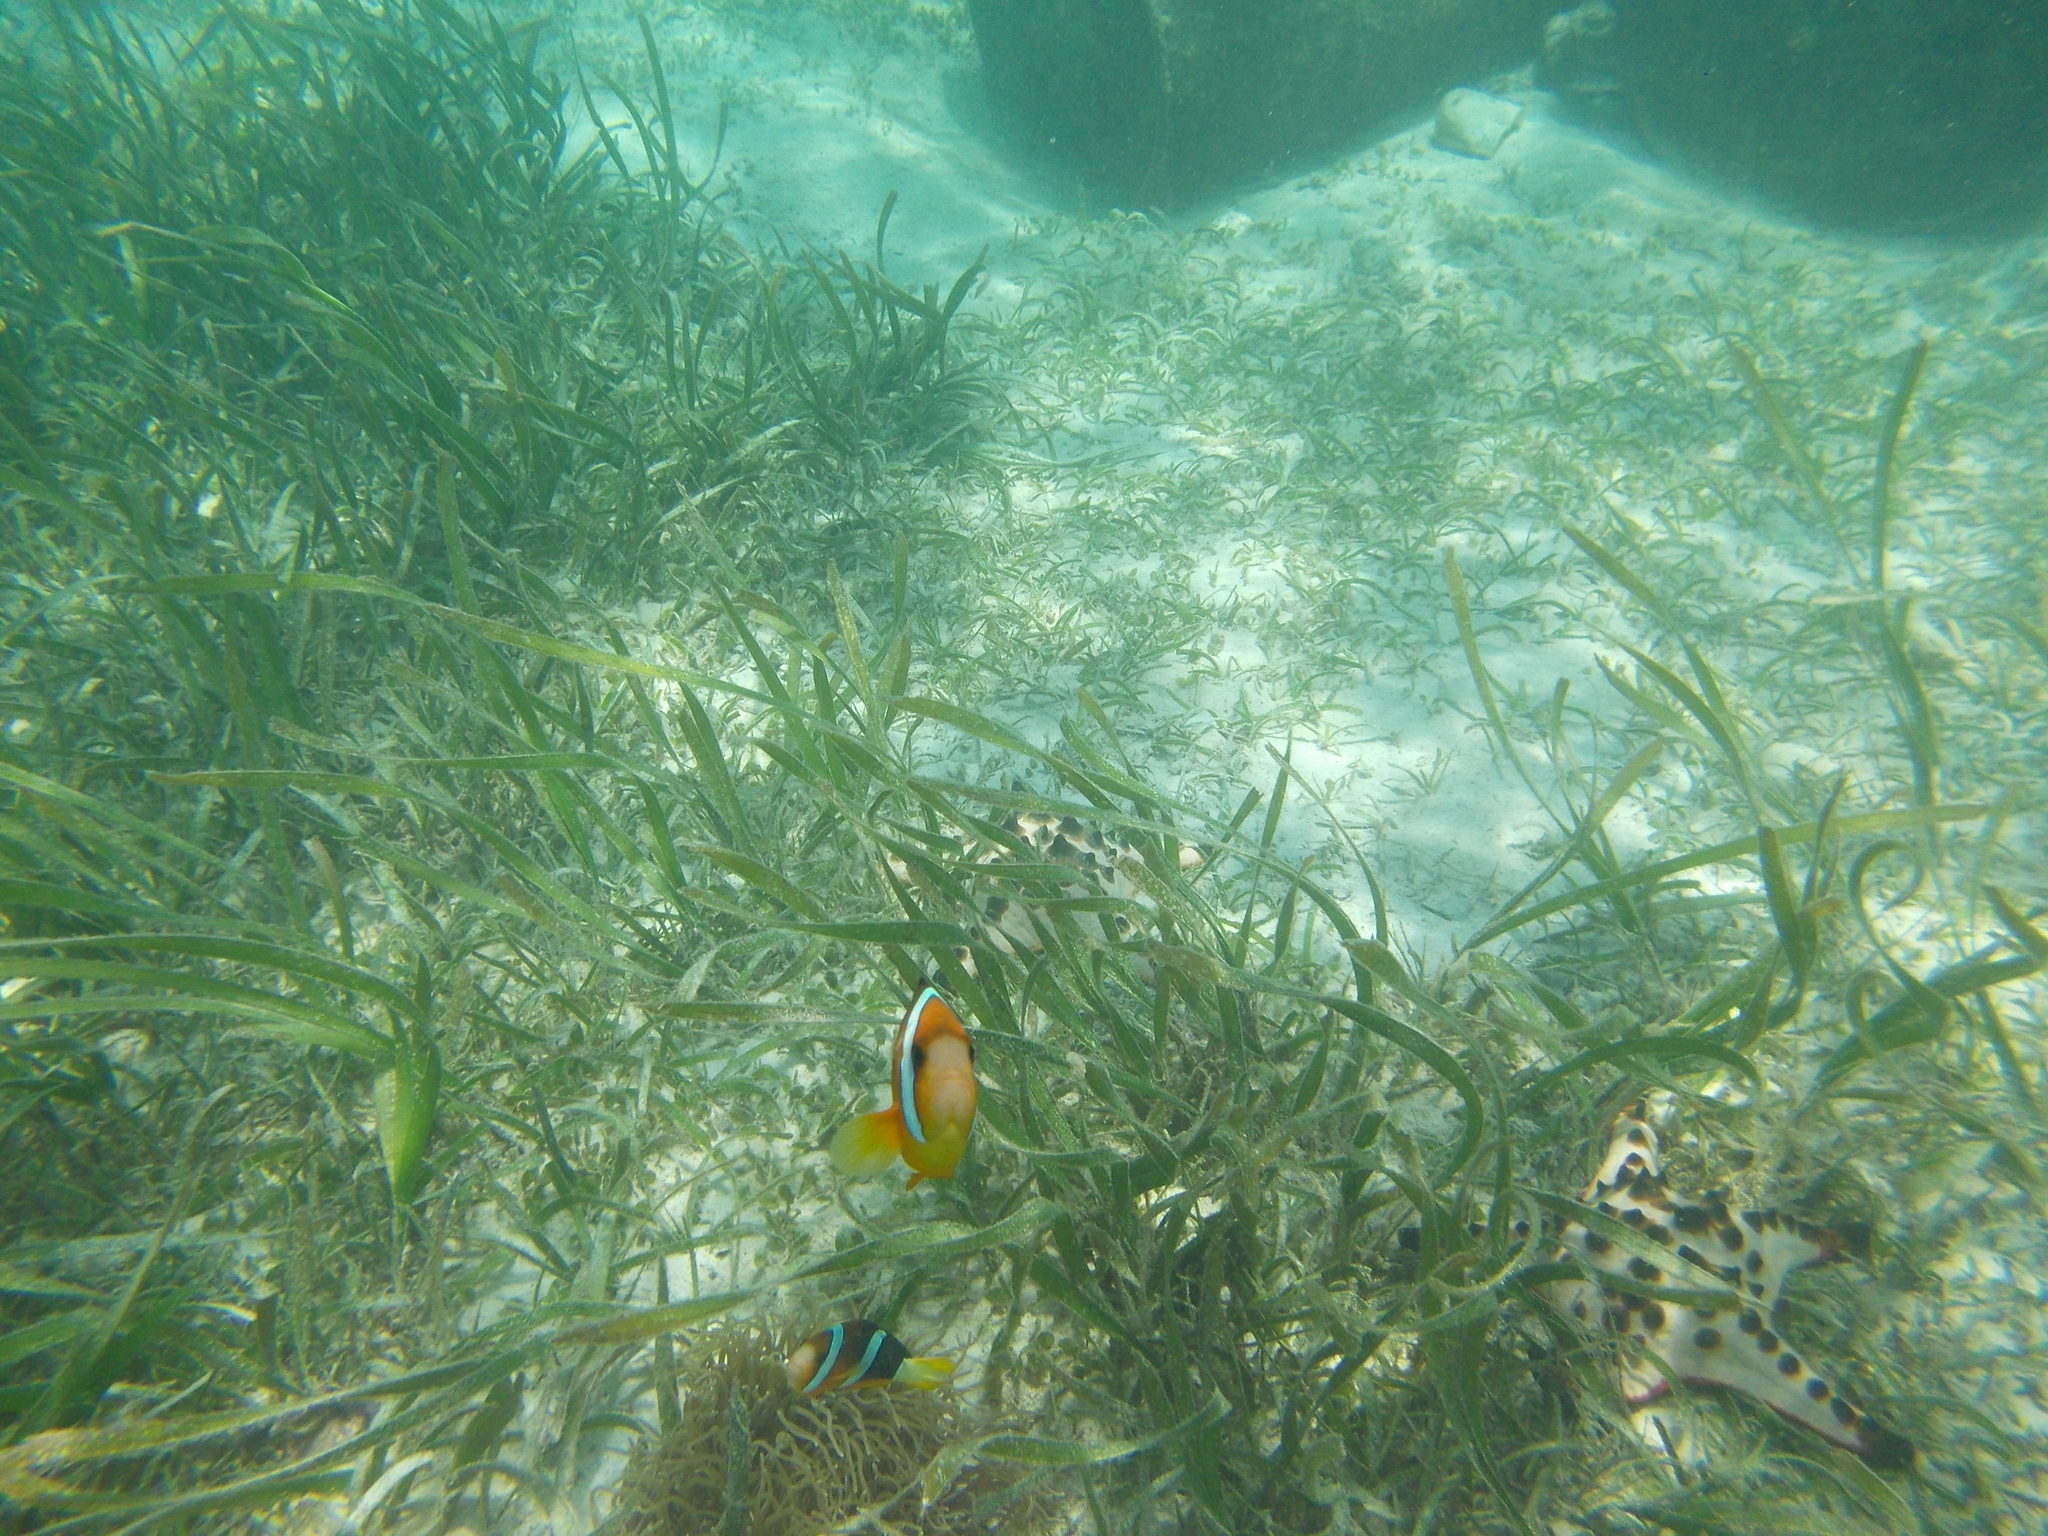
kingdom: Animalia
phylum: Chordata
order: Perciformes
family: Pomacentridae
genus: Amphiprion
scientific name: Amphiprion clarkii
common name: Clark's anemonefish
